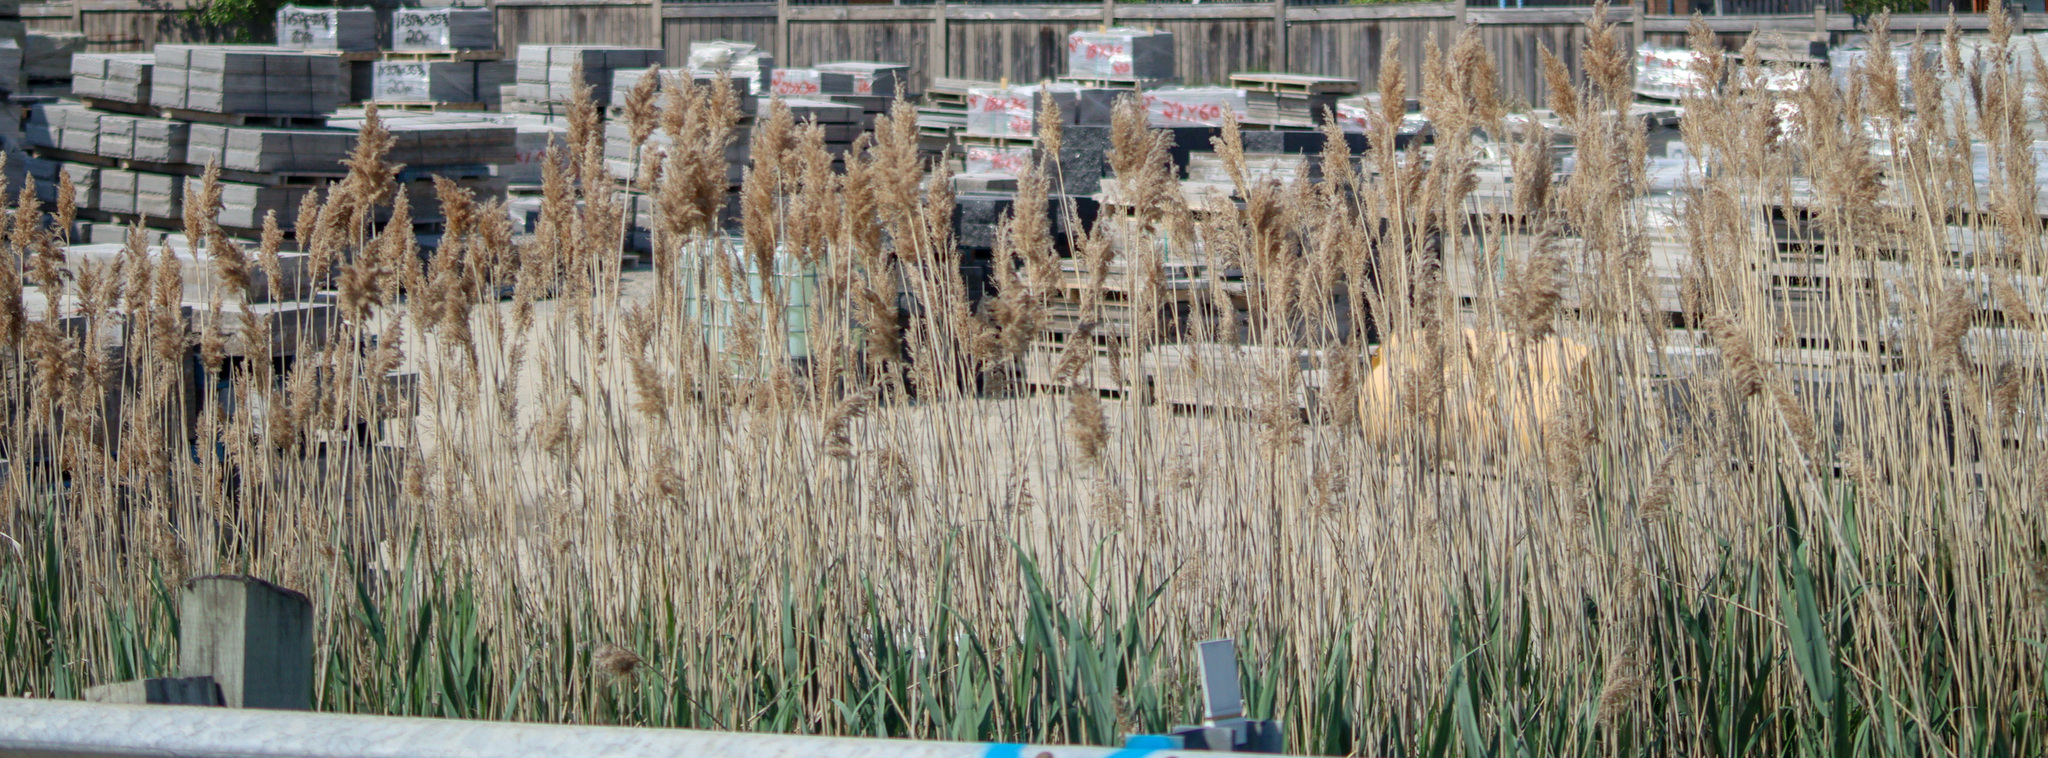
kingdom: Plantae
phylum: Tracheophyta
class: Liliopsida
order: Poales
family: Poaceae
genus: Phragmites
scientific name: Phragmites australis
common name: Common reed
